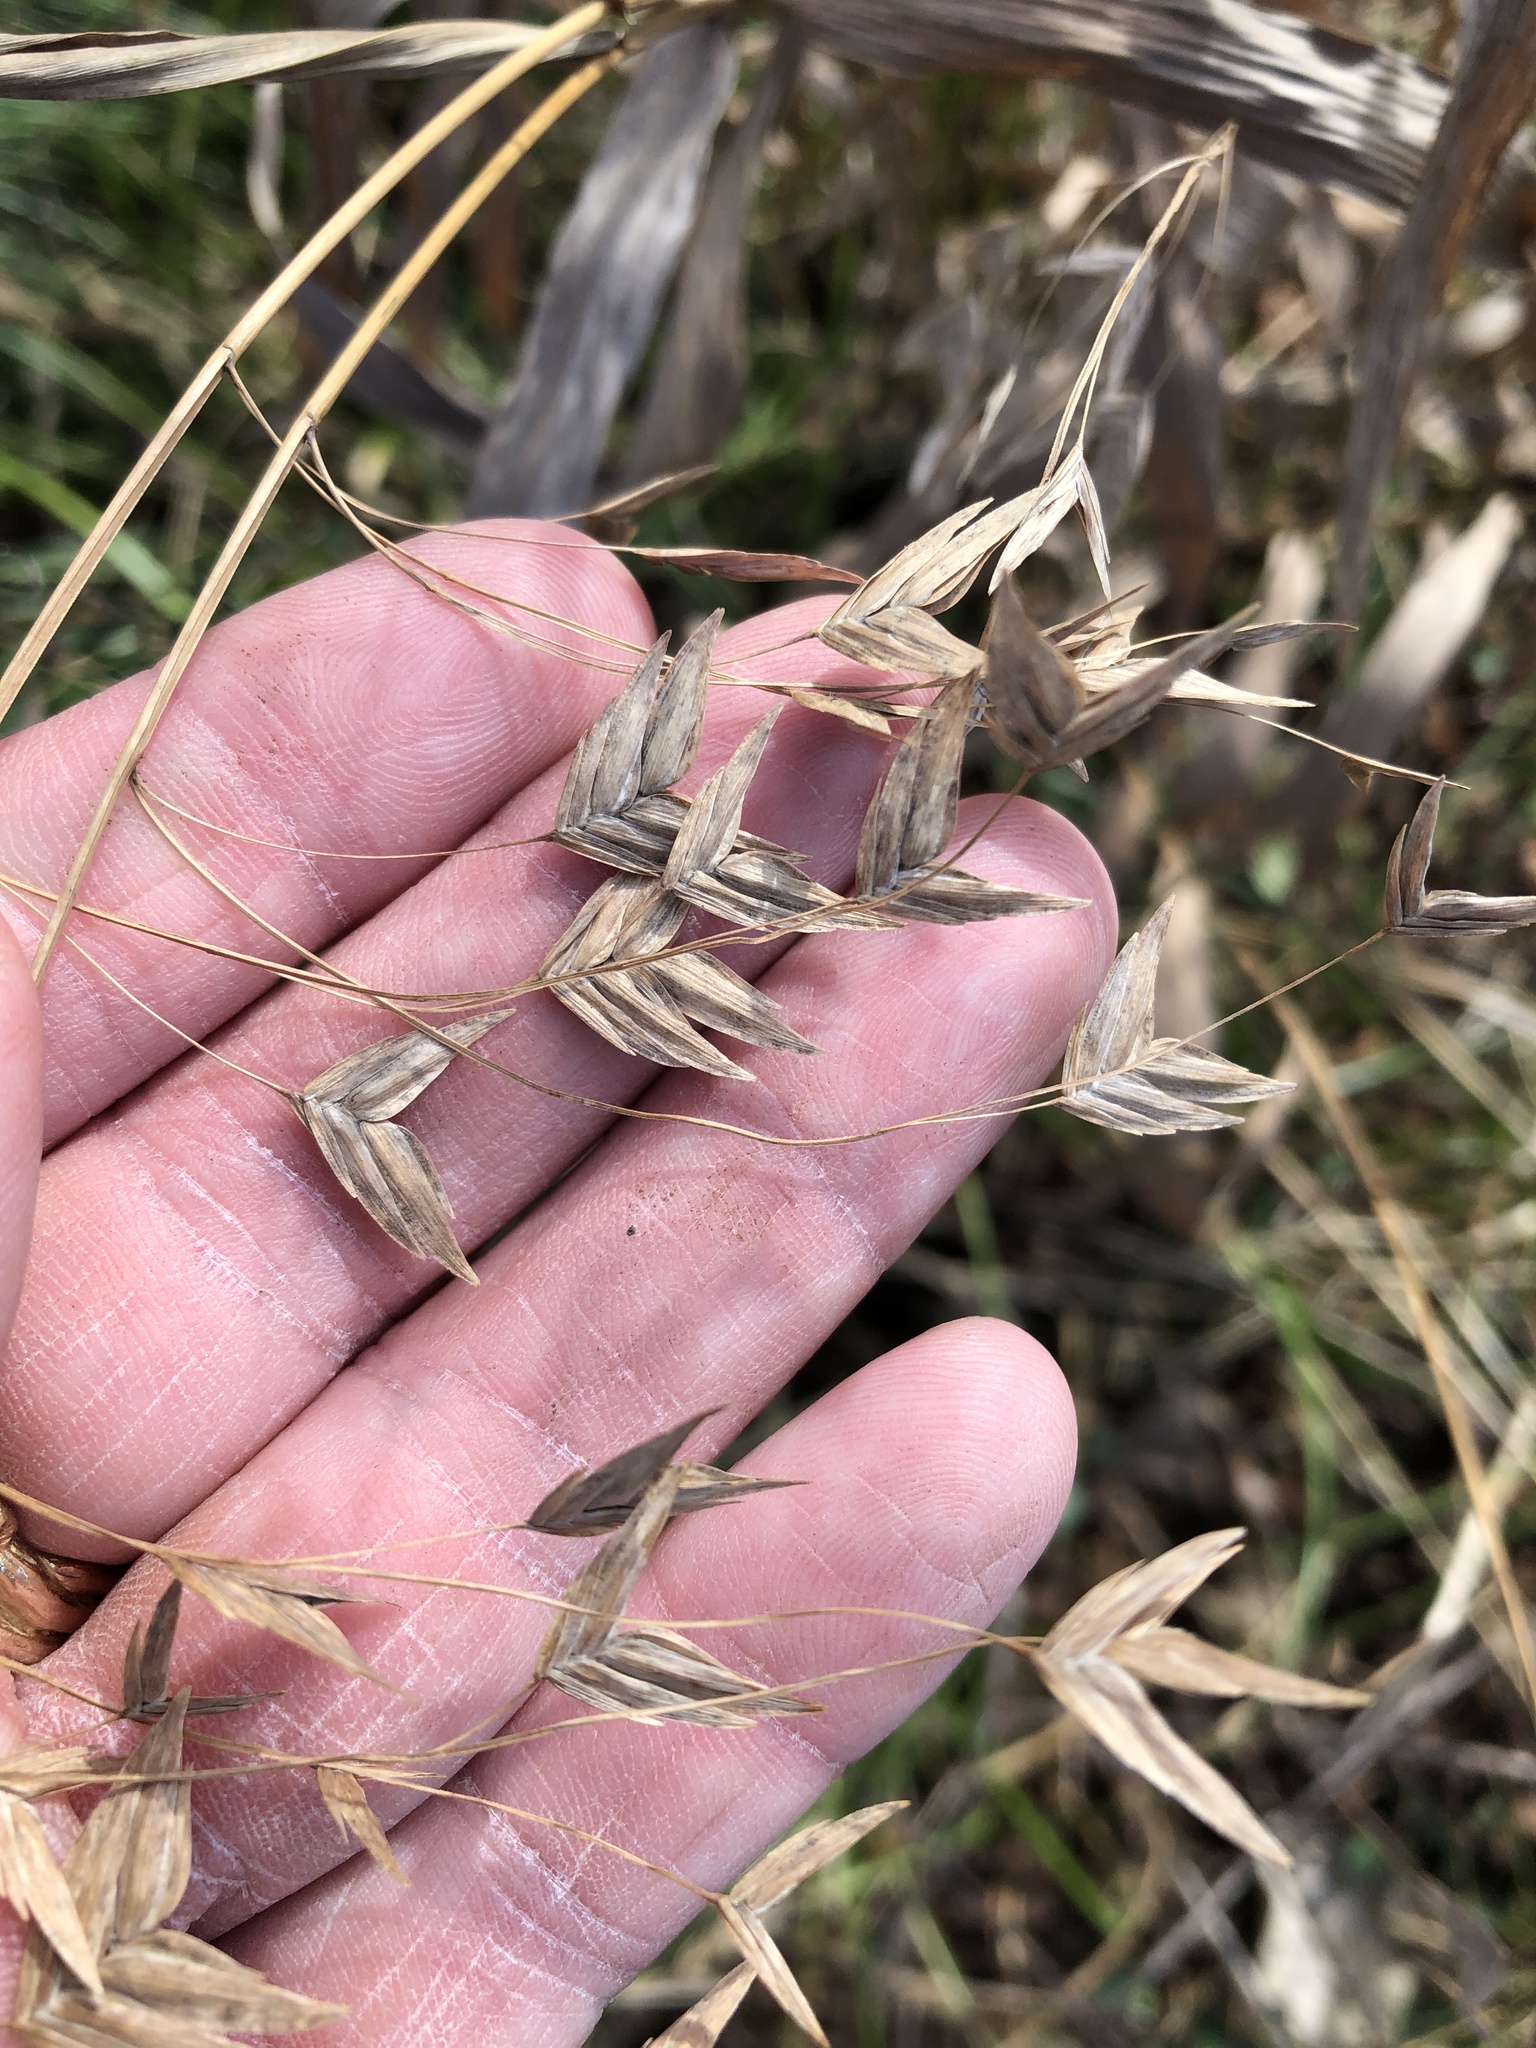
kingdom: Plantae
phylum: Tracheophyta
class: Liliopsida
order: Poales
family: Poaceae
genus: Chasmanthium
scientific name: Chasmanthium latifolium
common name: Broad-leaved chasmanthium
